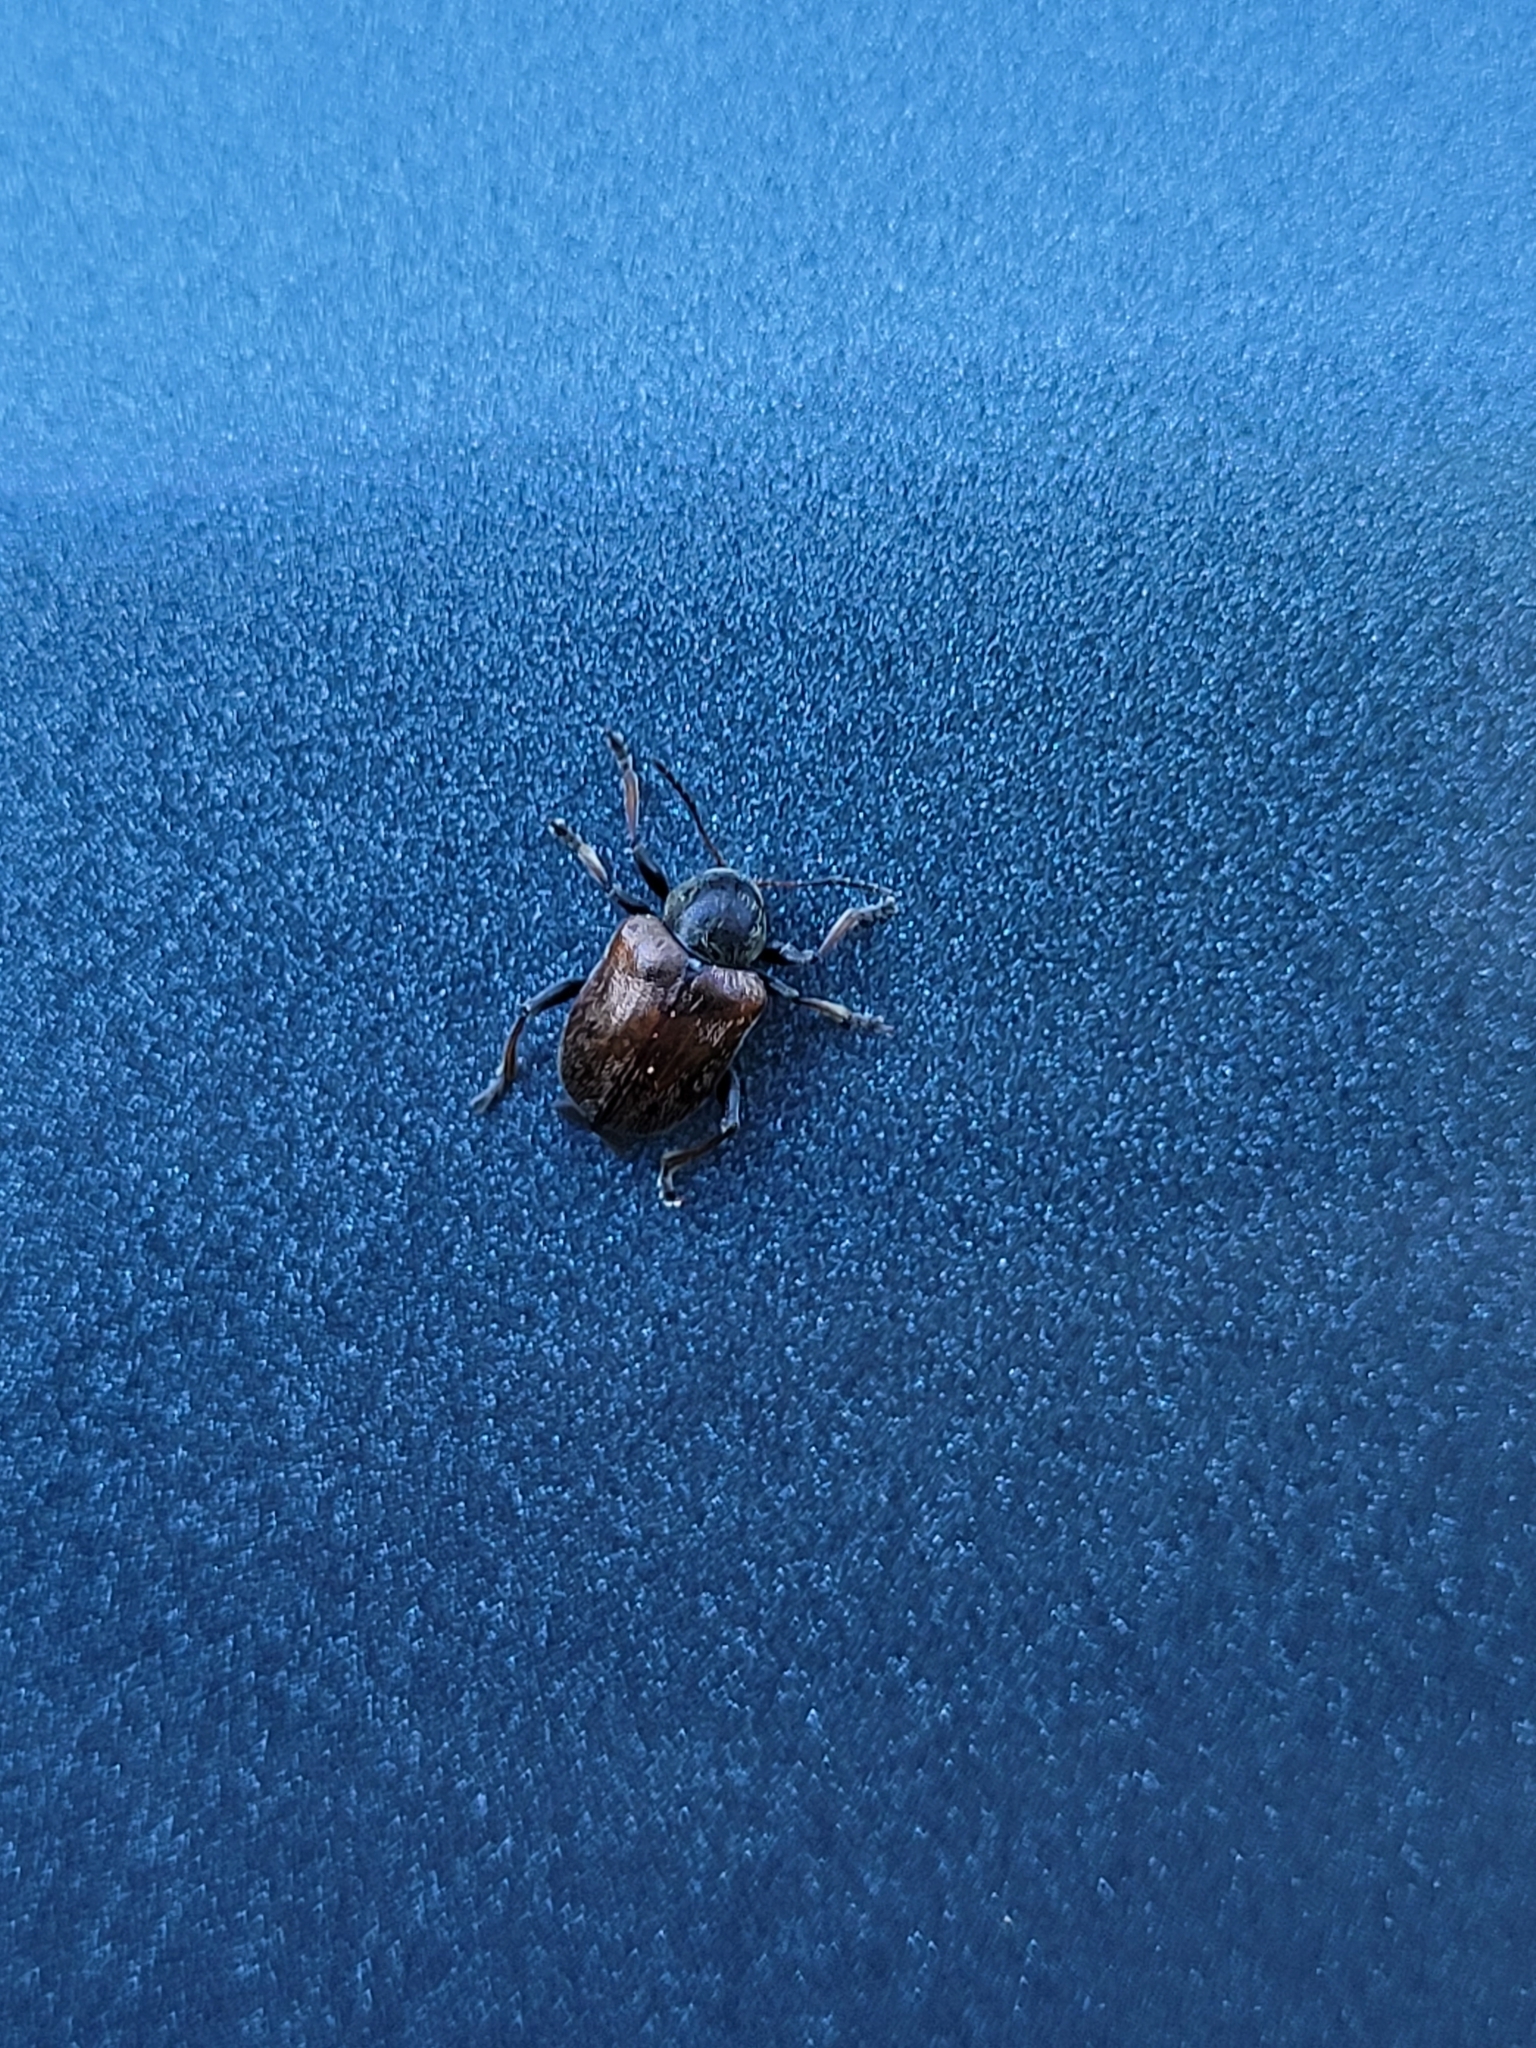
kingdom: Animalia
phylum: Arthropoda
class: Insecta
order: Coleoptera
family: Chrysomelidae
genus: Bromius
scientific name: Bromius obscurus
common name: Western grape rootworm
